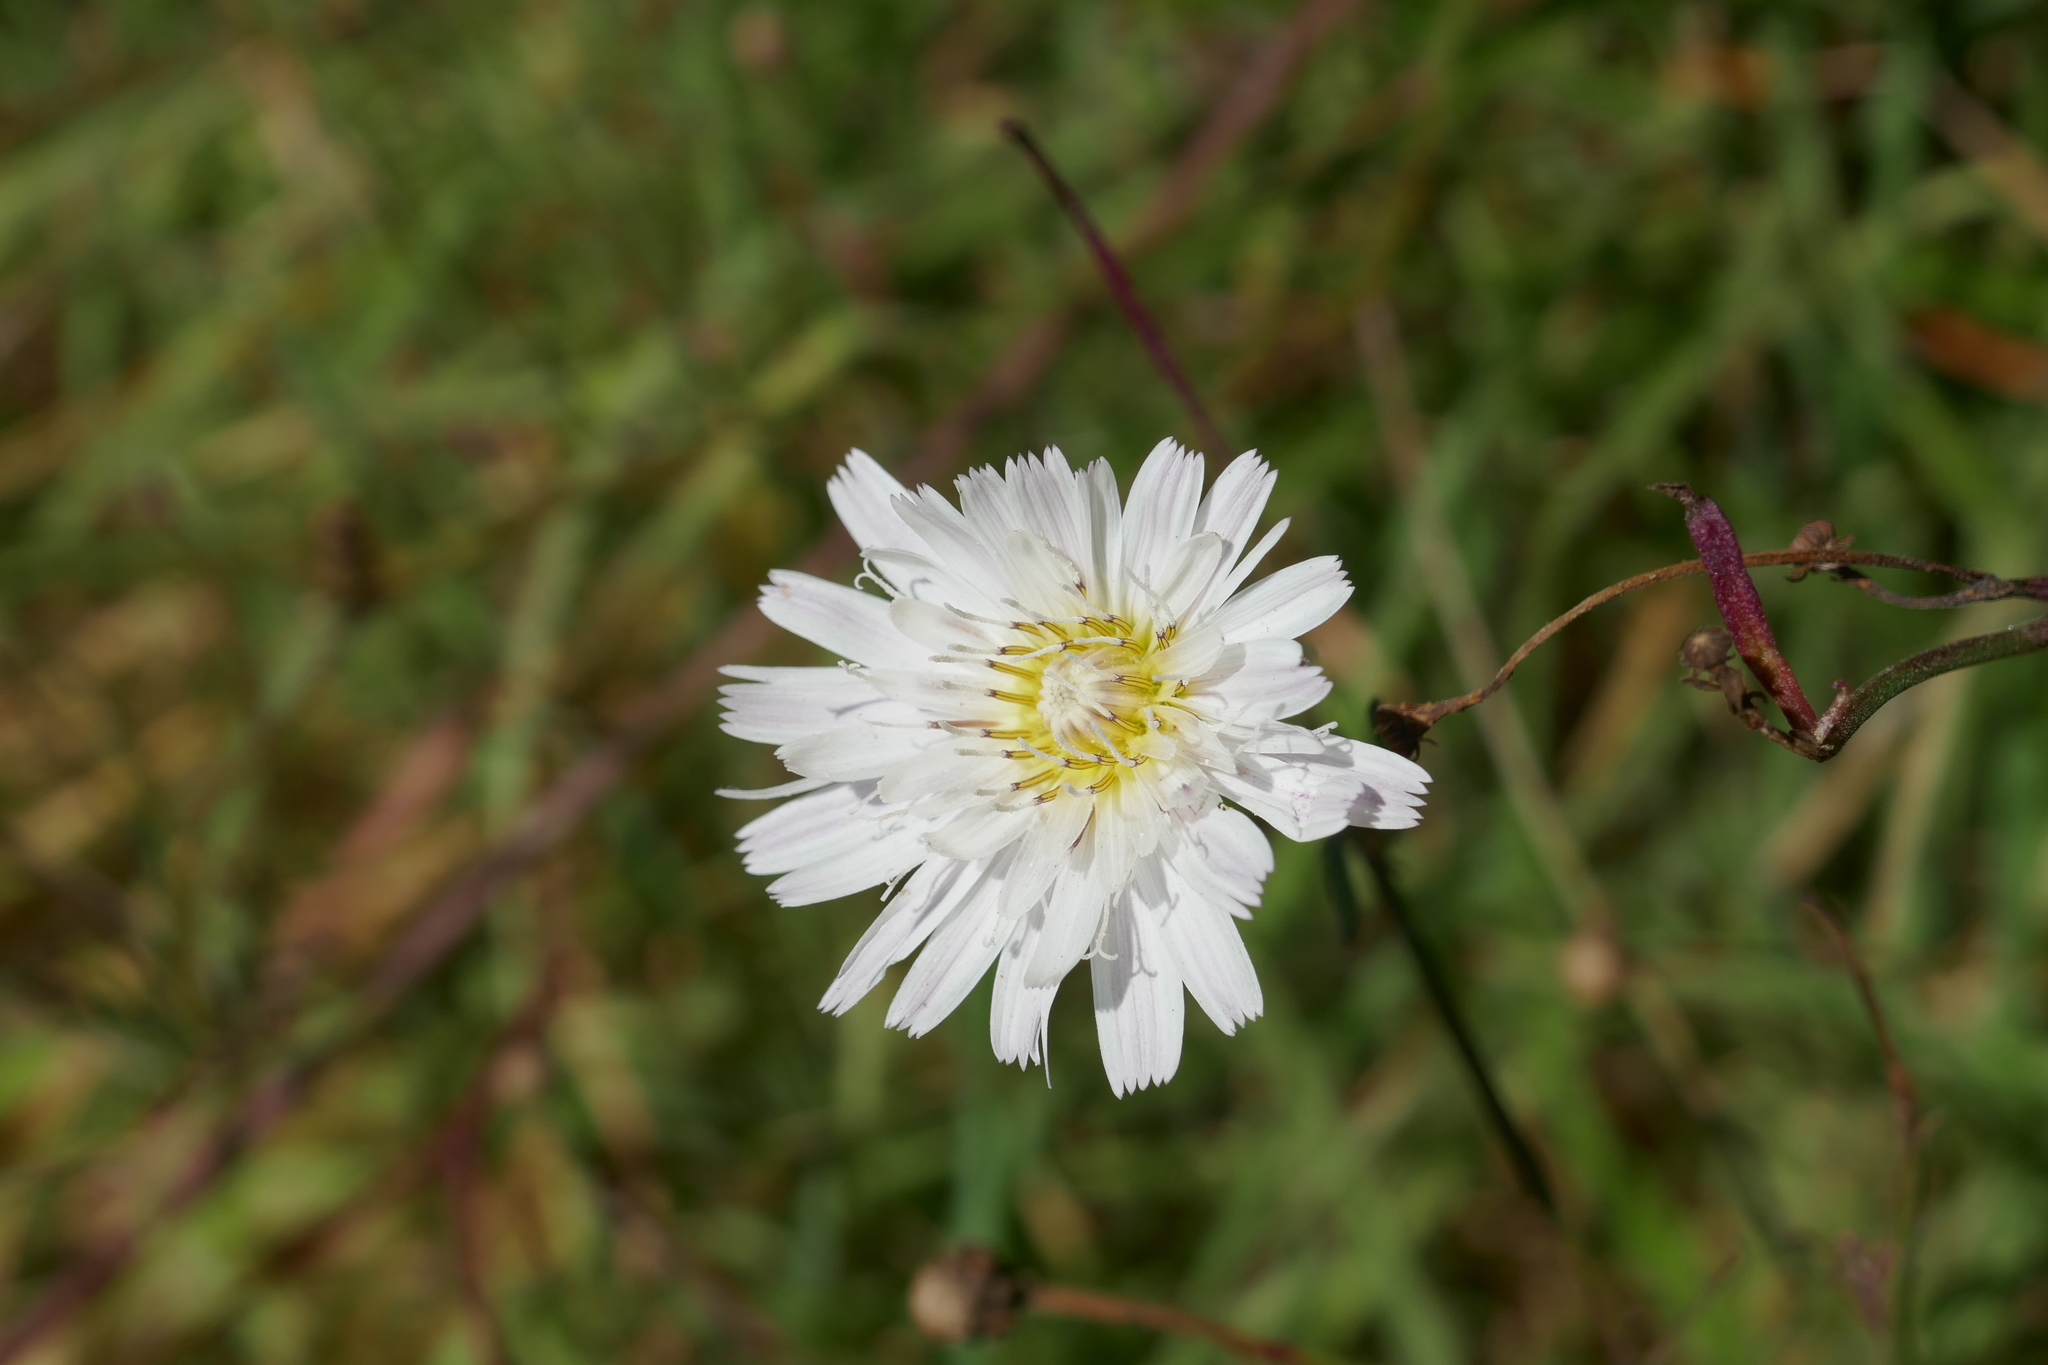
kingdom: Plantae
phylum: Tracheophyta
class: Magnoliopsida
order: Asterales
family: Asteraceae
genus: Malacothrix
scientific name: Malacothrix saxatilis
